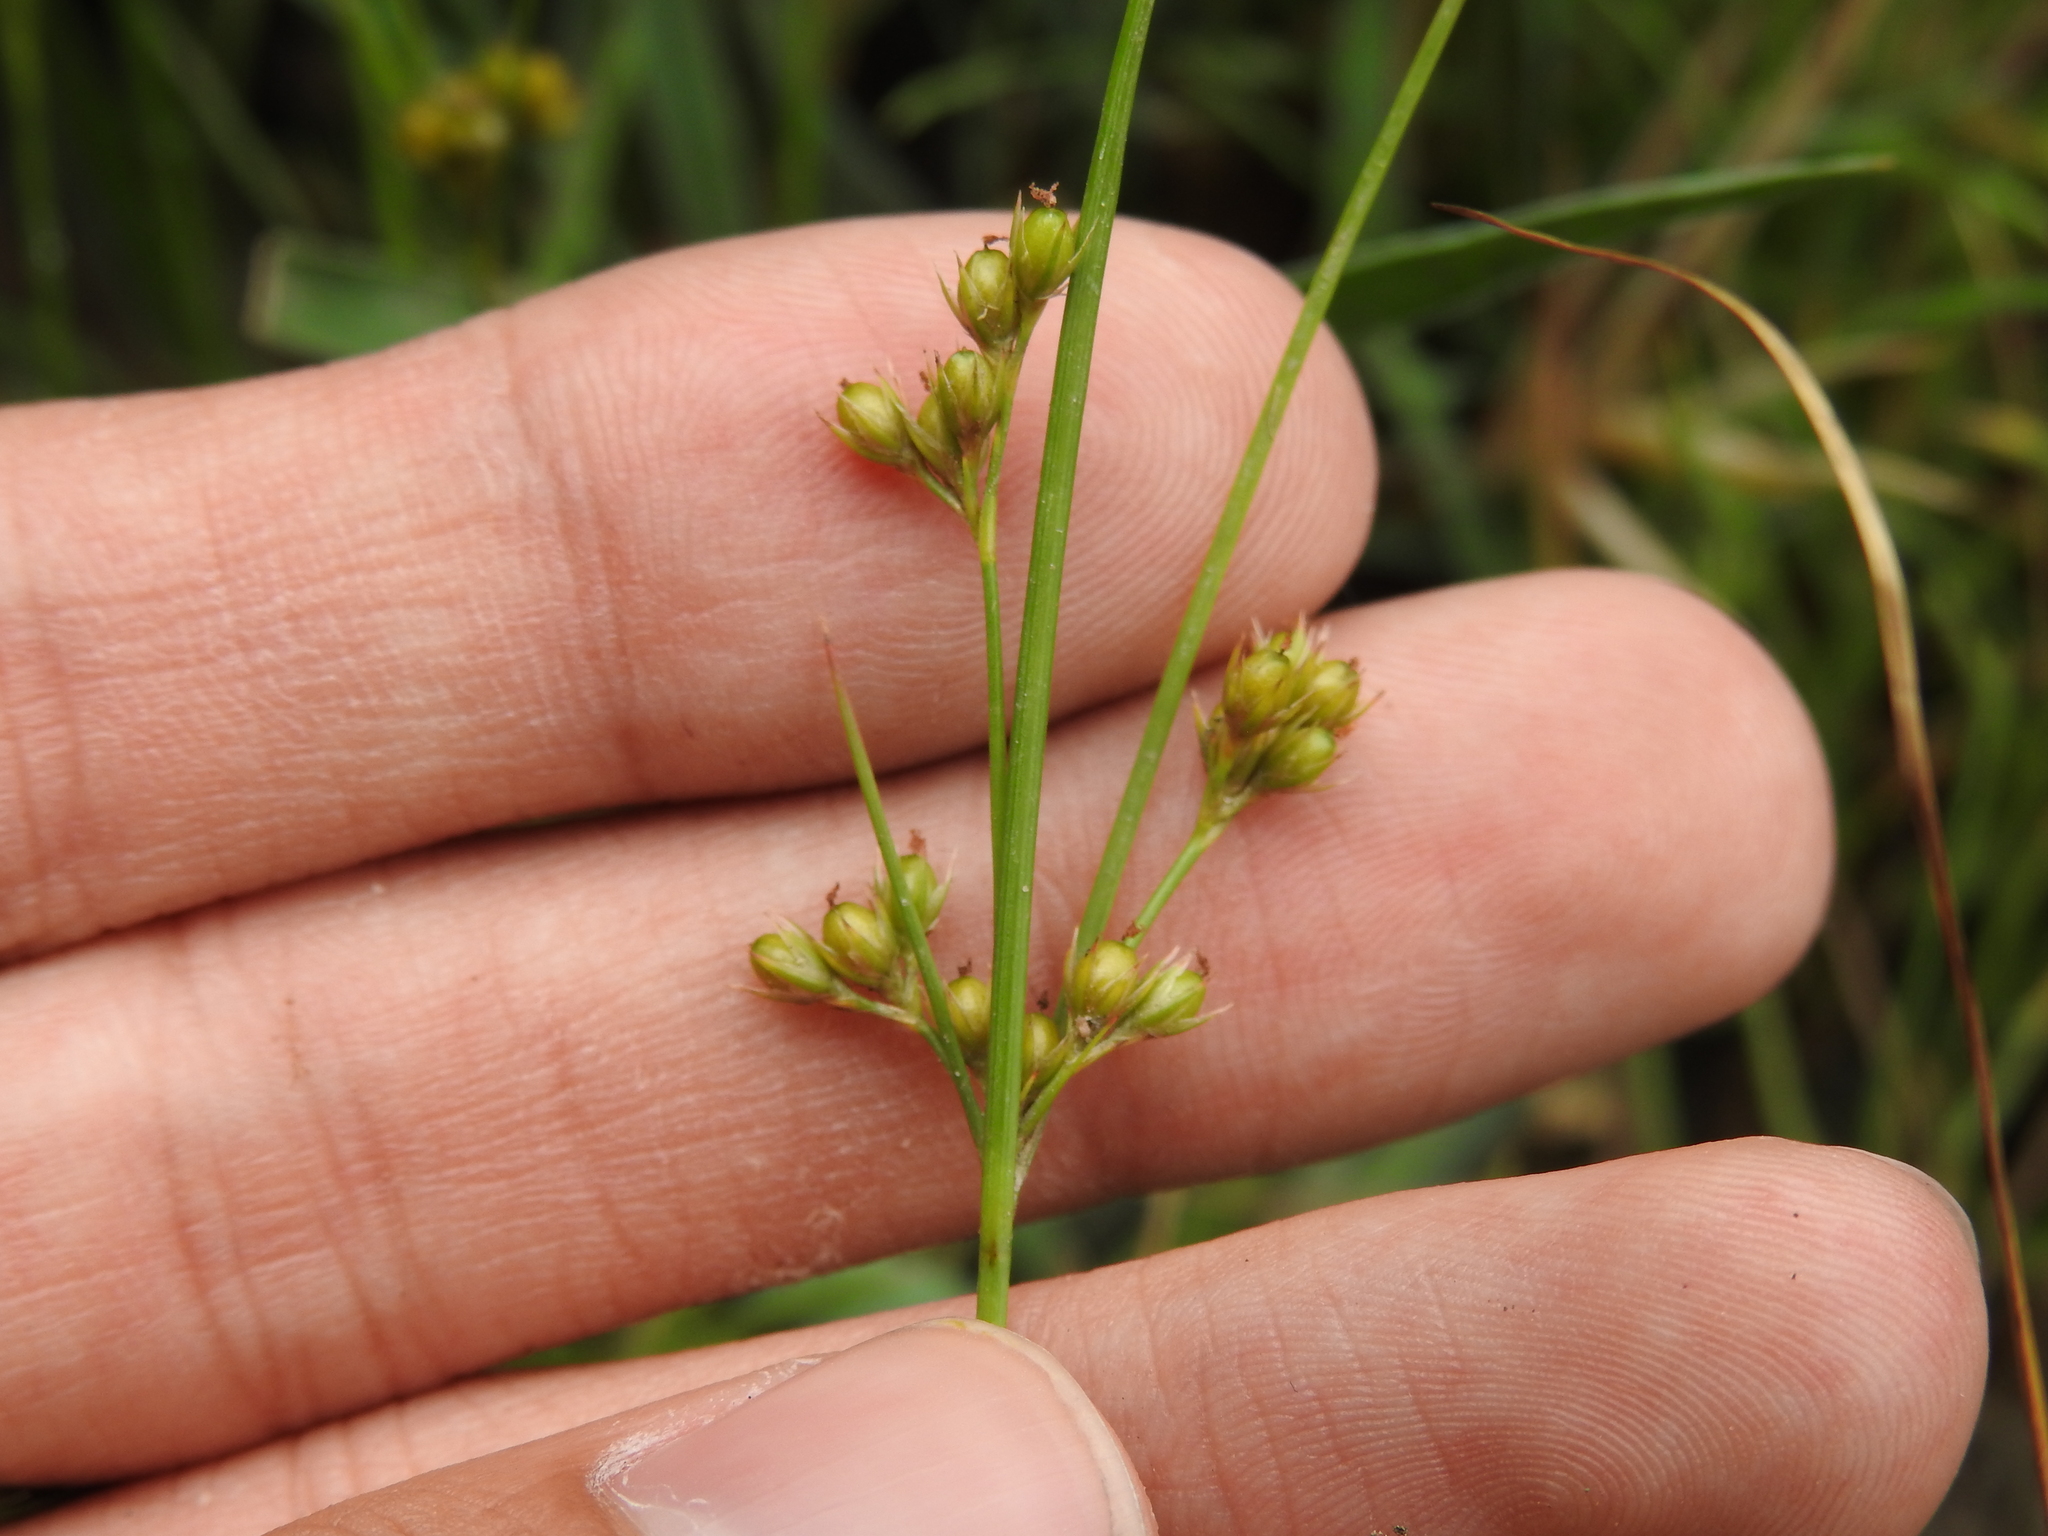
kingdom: Plantae
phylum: Tracheophyta
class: Liliopsida
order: Poales
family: Juncaceae
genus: Juncus
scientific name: Juncus tenuis
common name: Slender rush
